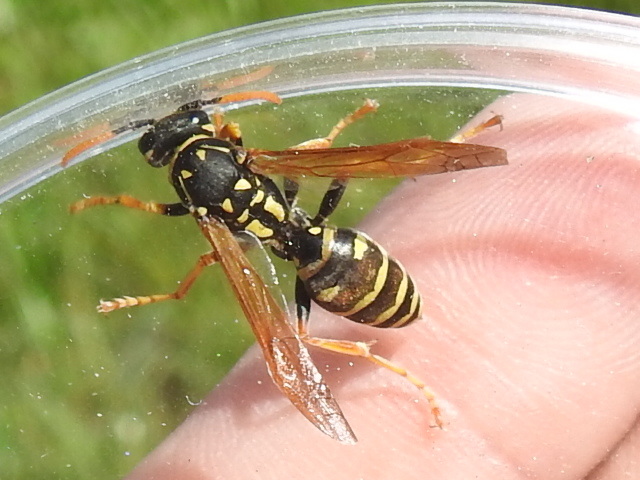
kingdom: Animalia
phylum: Arthropoda
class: Insecta
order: Hymenoptera
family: Eumenidae
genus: Polistes
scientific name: Polistes dominula
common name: Paper wasp
